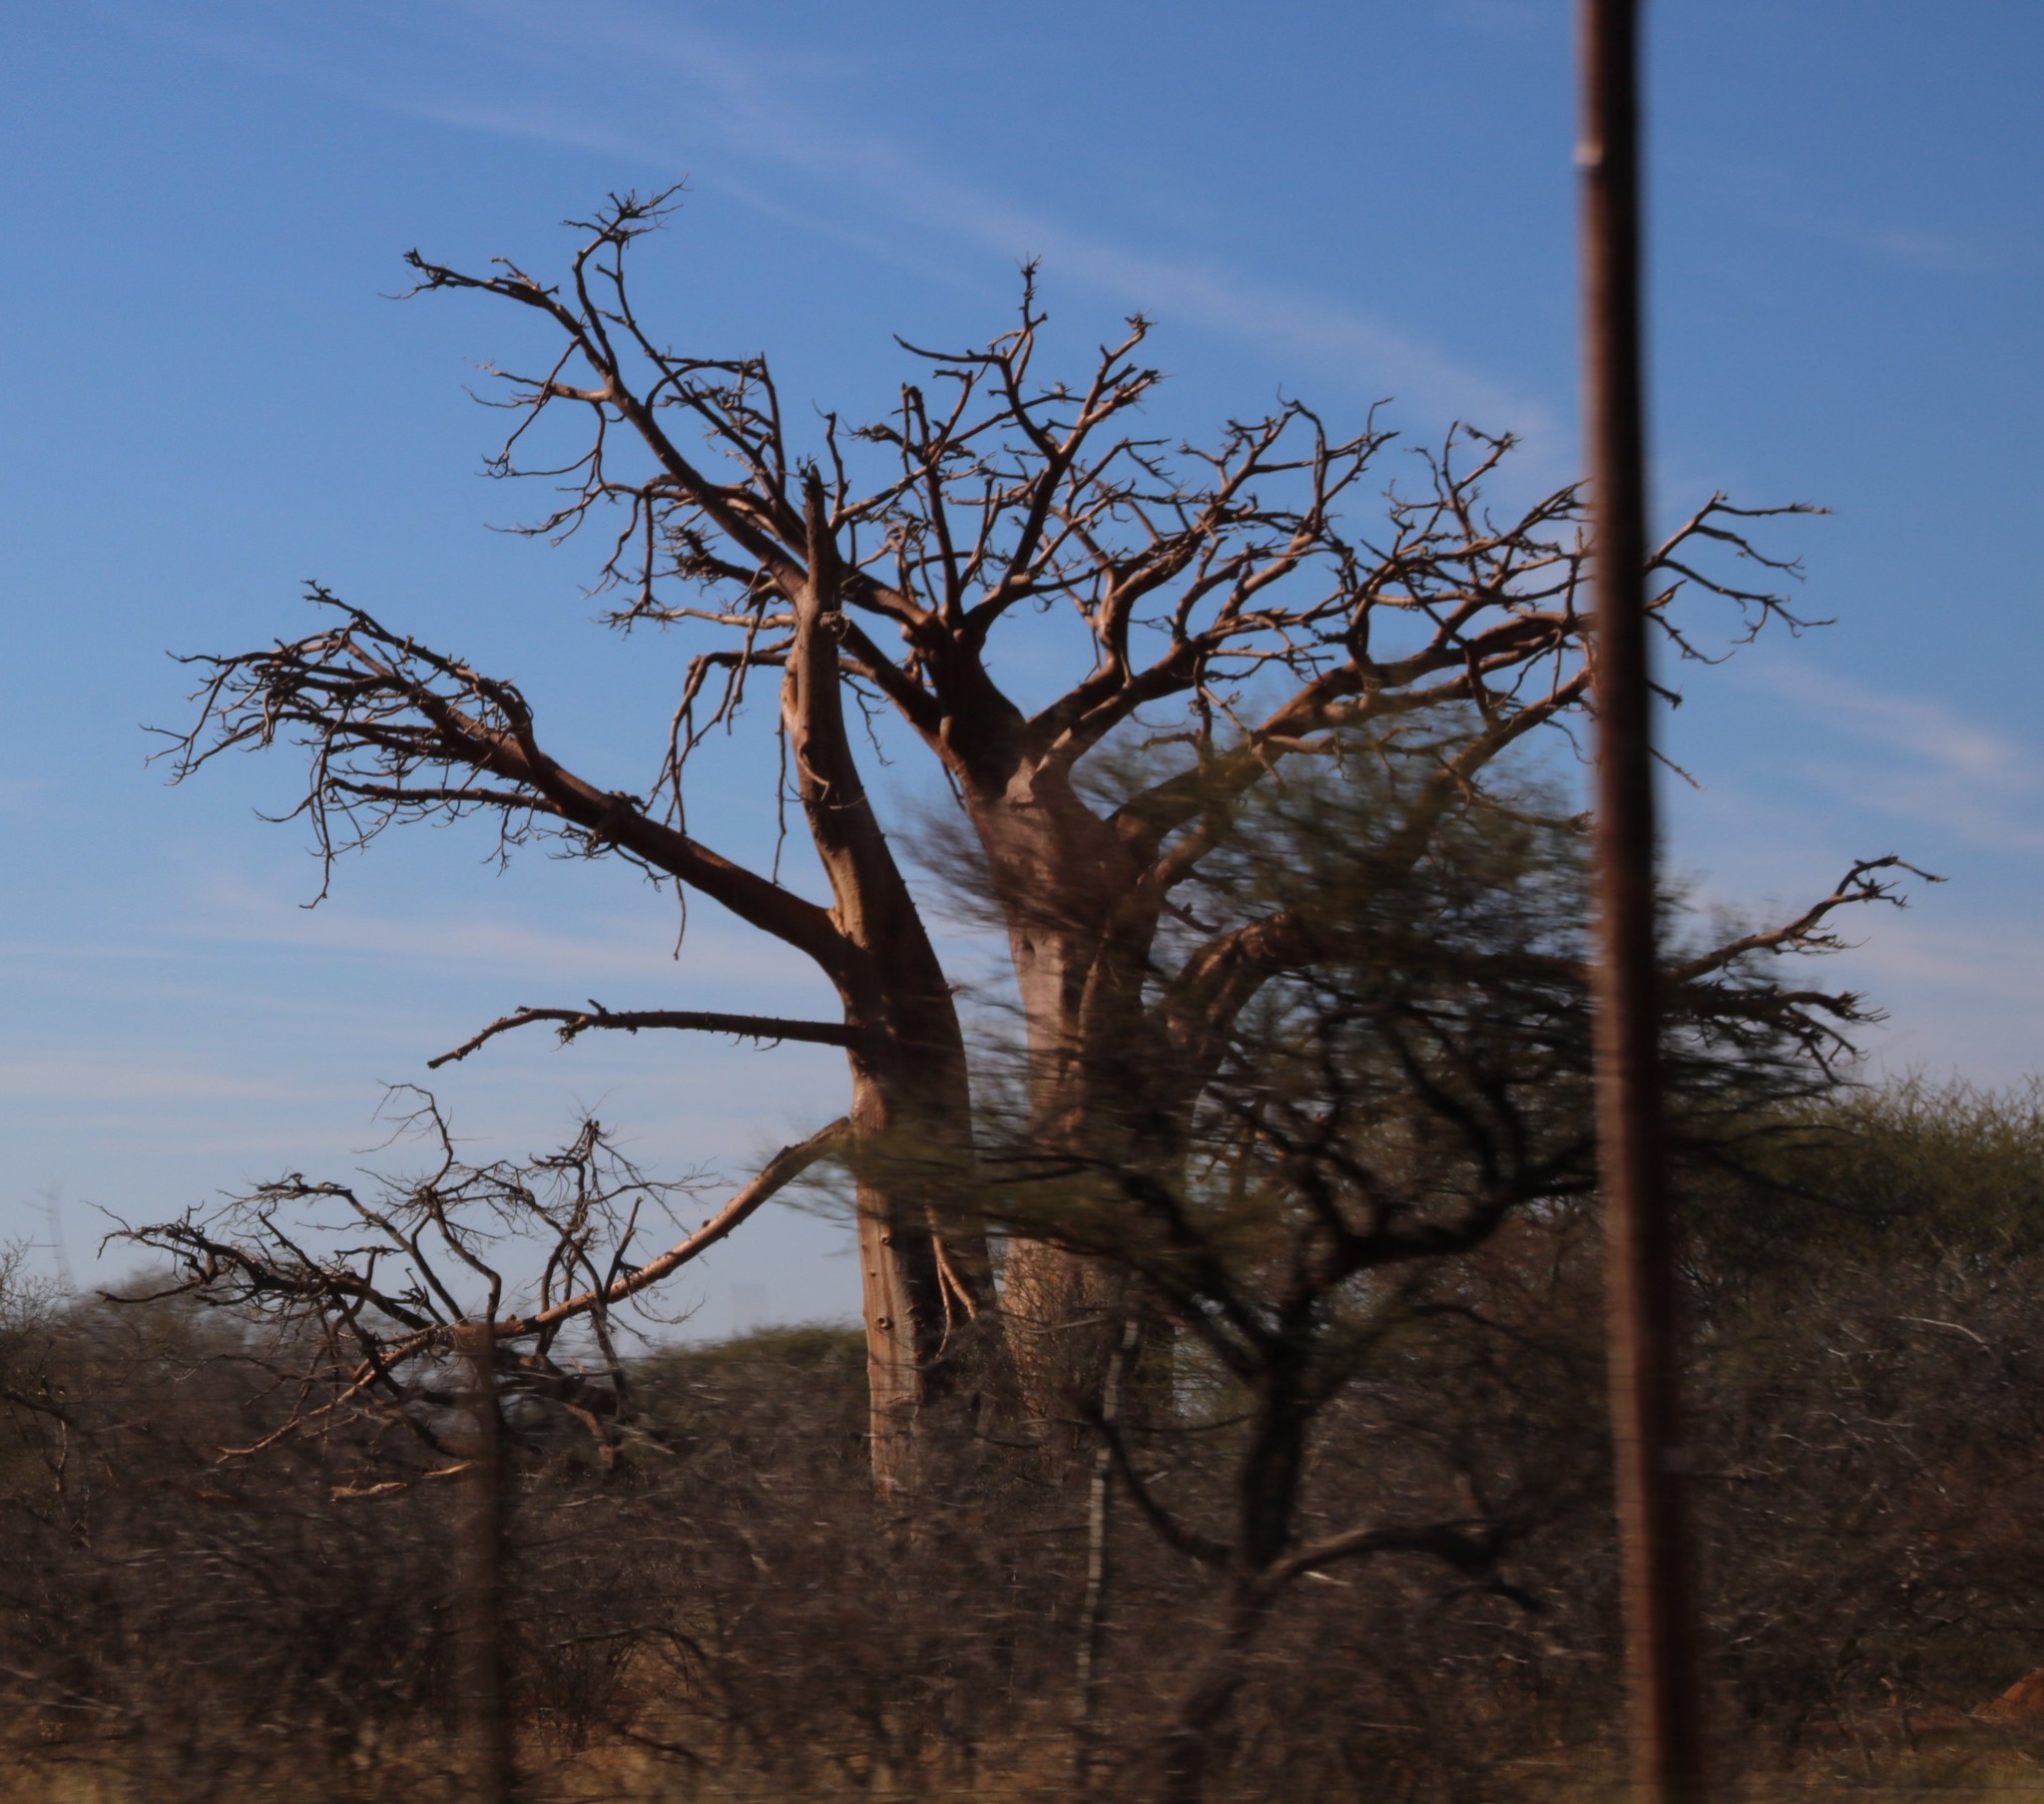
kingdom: Plantae
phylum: Tracheophyta
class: Magnoliopsida
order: Malvales
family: Malvaceae
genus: Adansonia
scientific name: Adansonia digitata
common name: Dead-rat-tree
